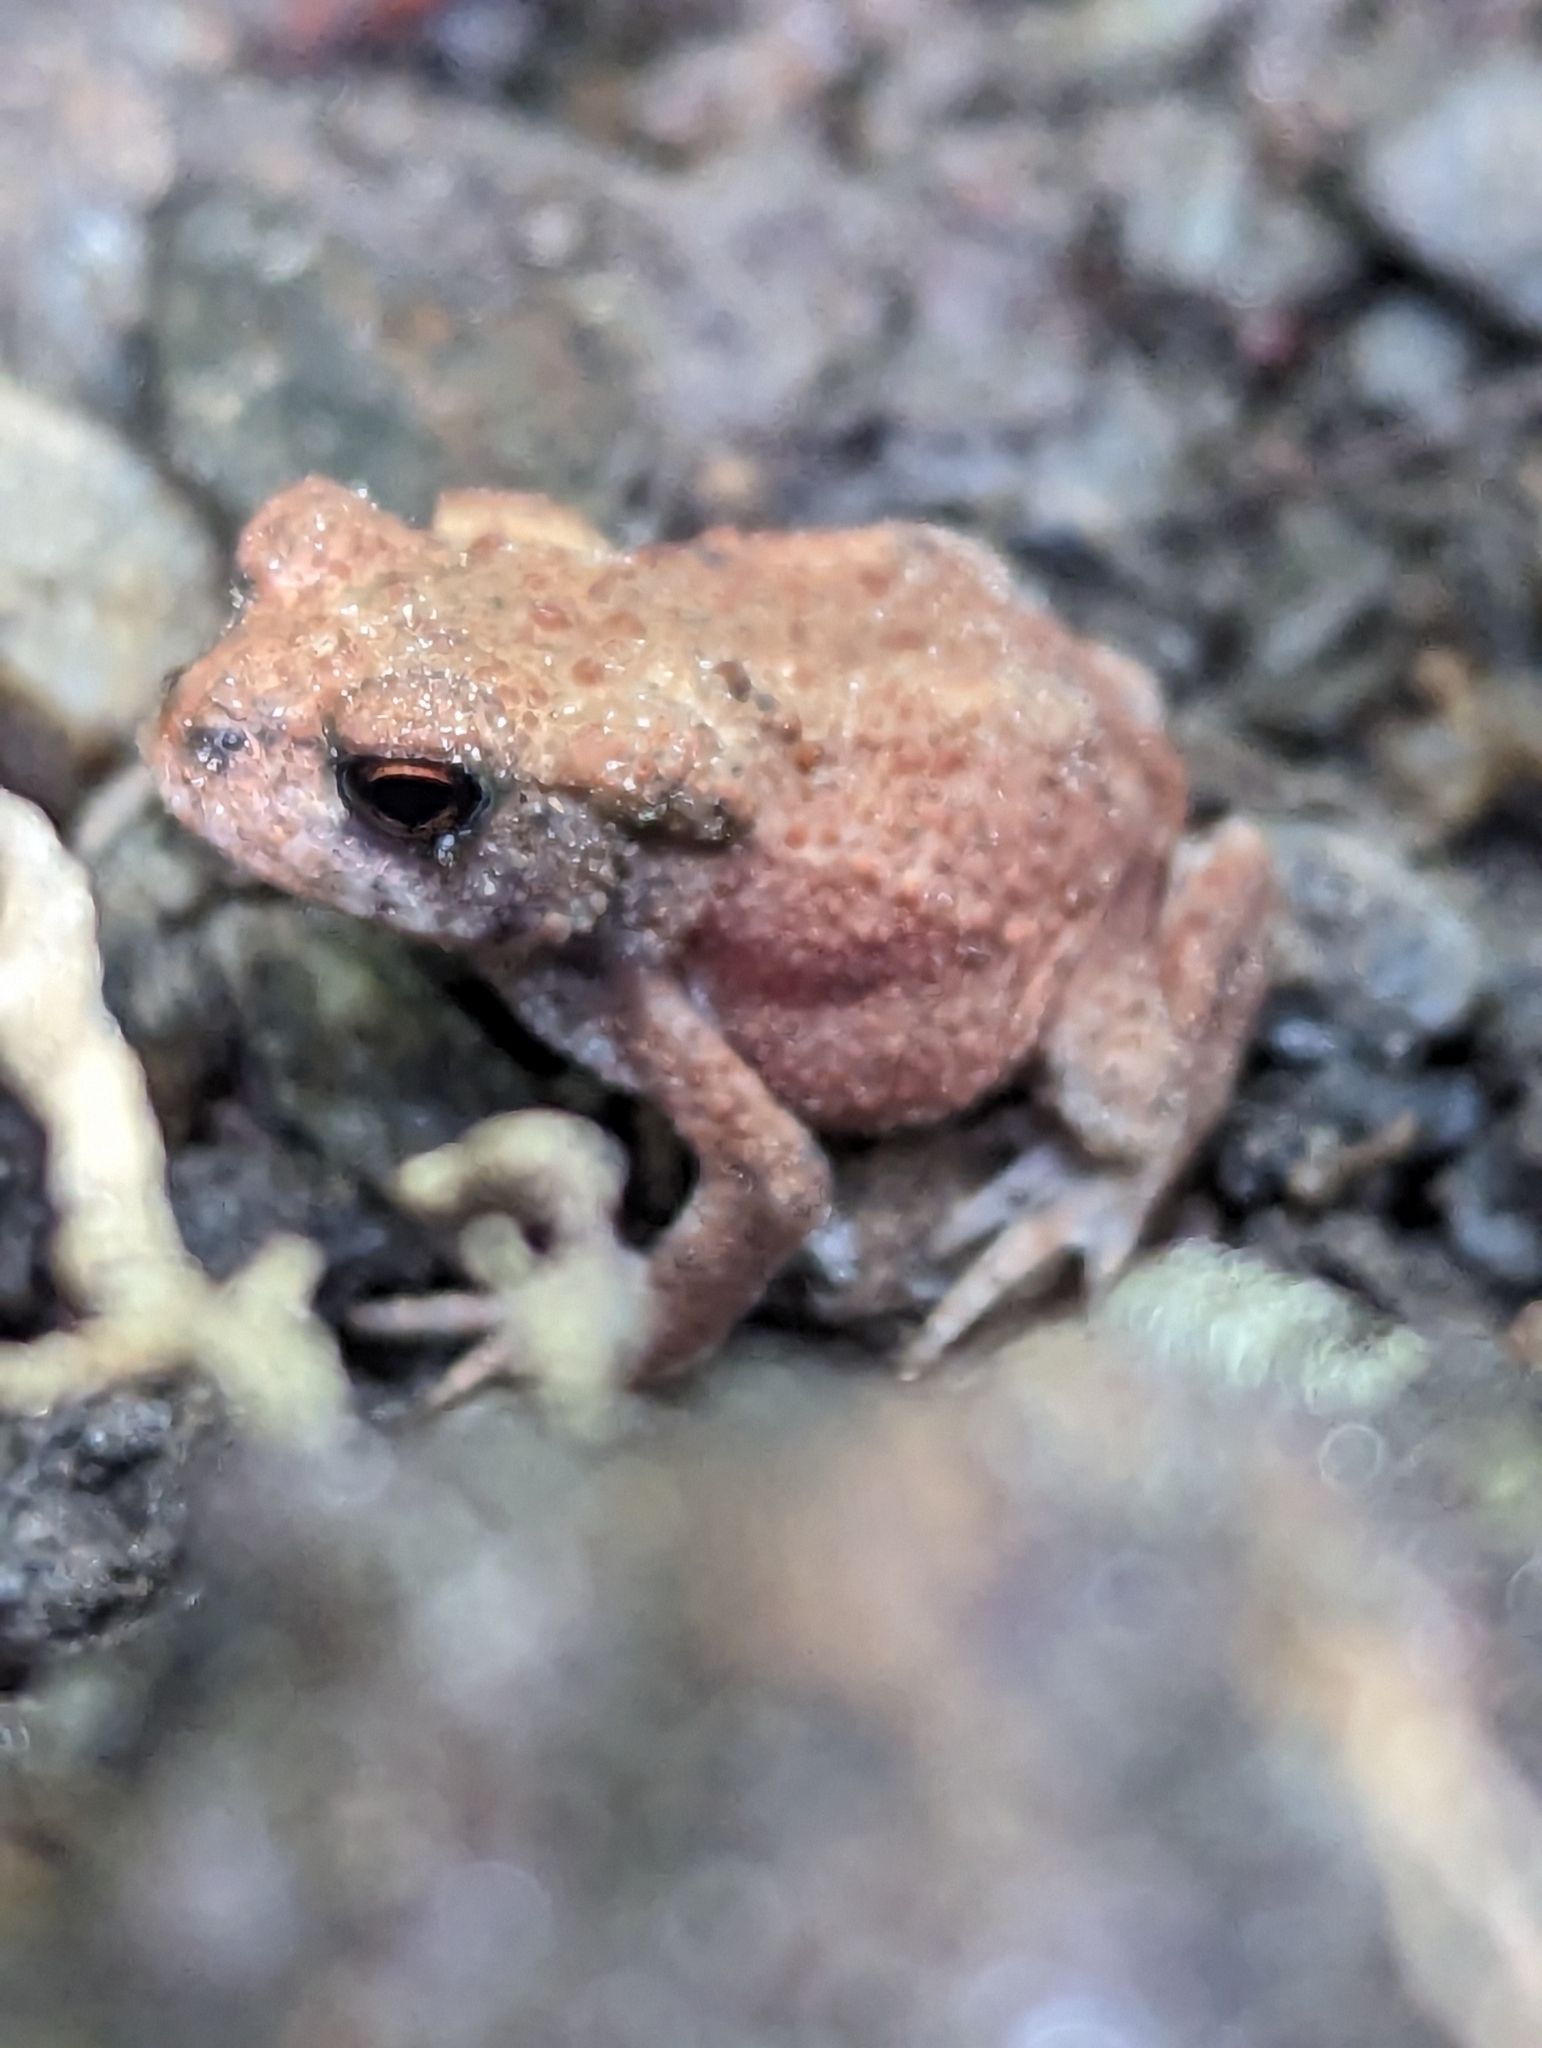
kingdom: Animalia
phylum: Chordata
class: Amphibia
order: Anura
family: Bufonidae
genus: Bufo
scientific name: Bufo bufo
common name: Common toad
